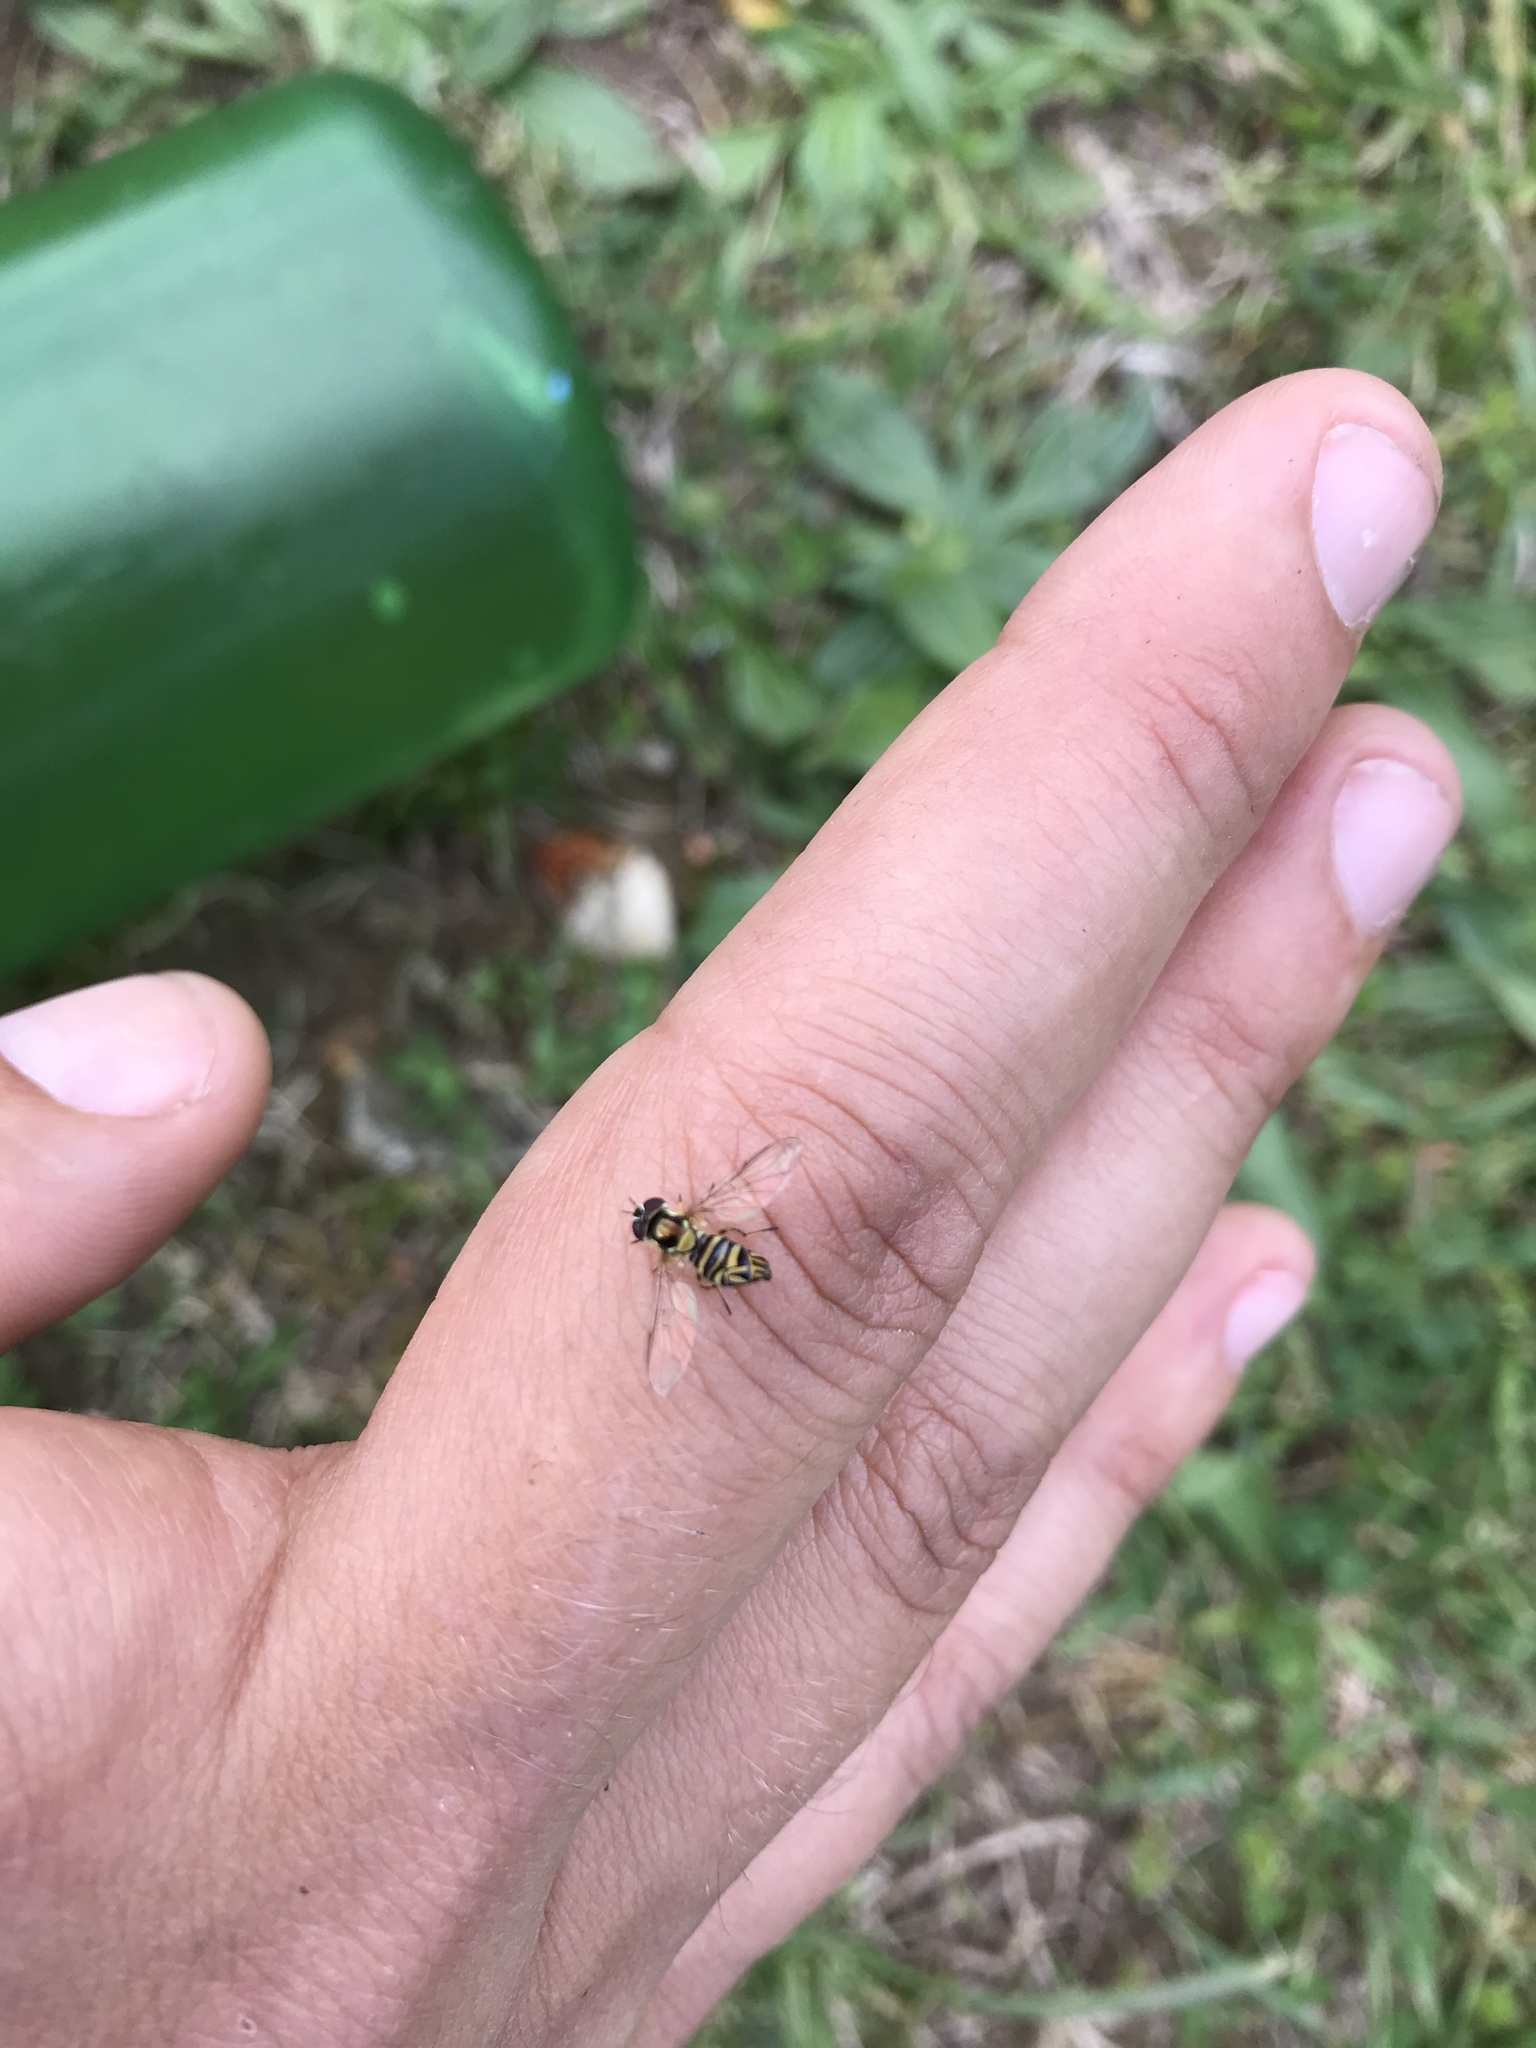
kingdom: Animalia
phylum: Arthropoda
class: Insecta
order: Diptera
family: Syrphidae
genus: Allograpta
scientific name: Allograpta obliqua
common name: Common oblique syrphid
